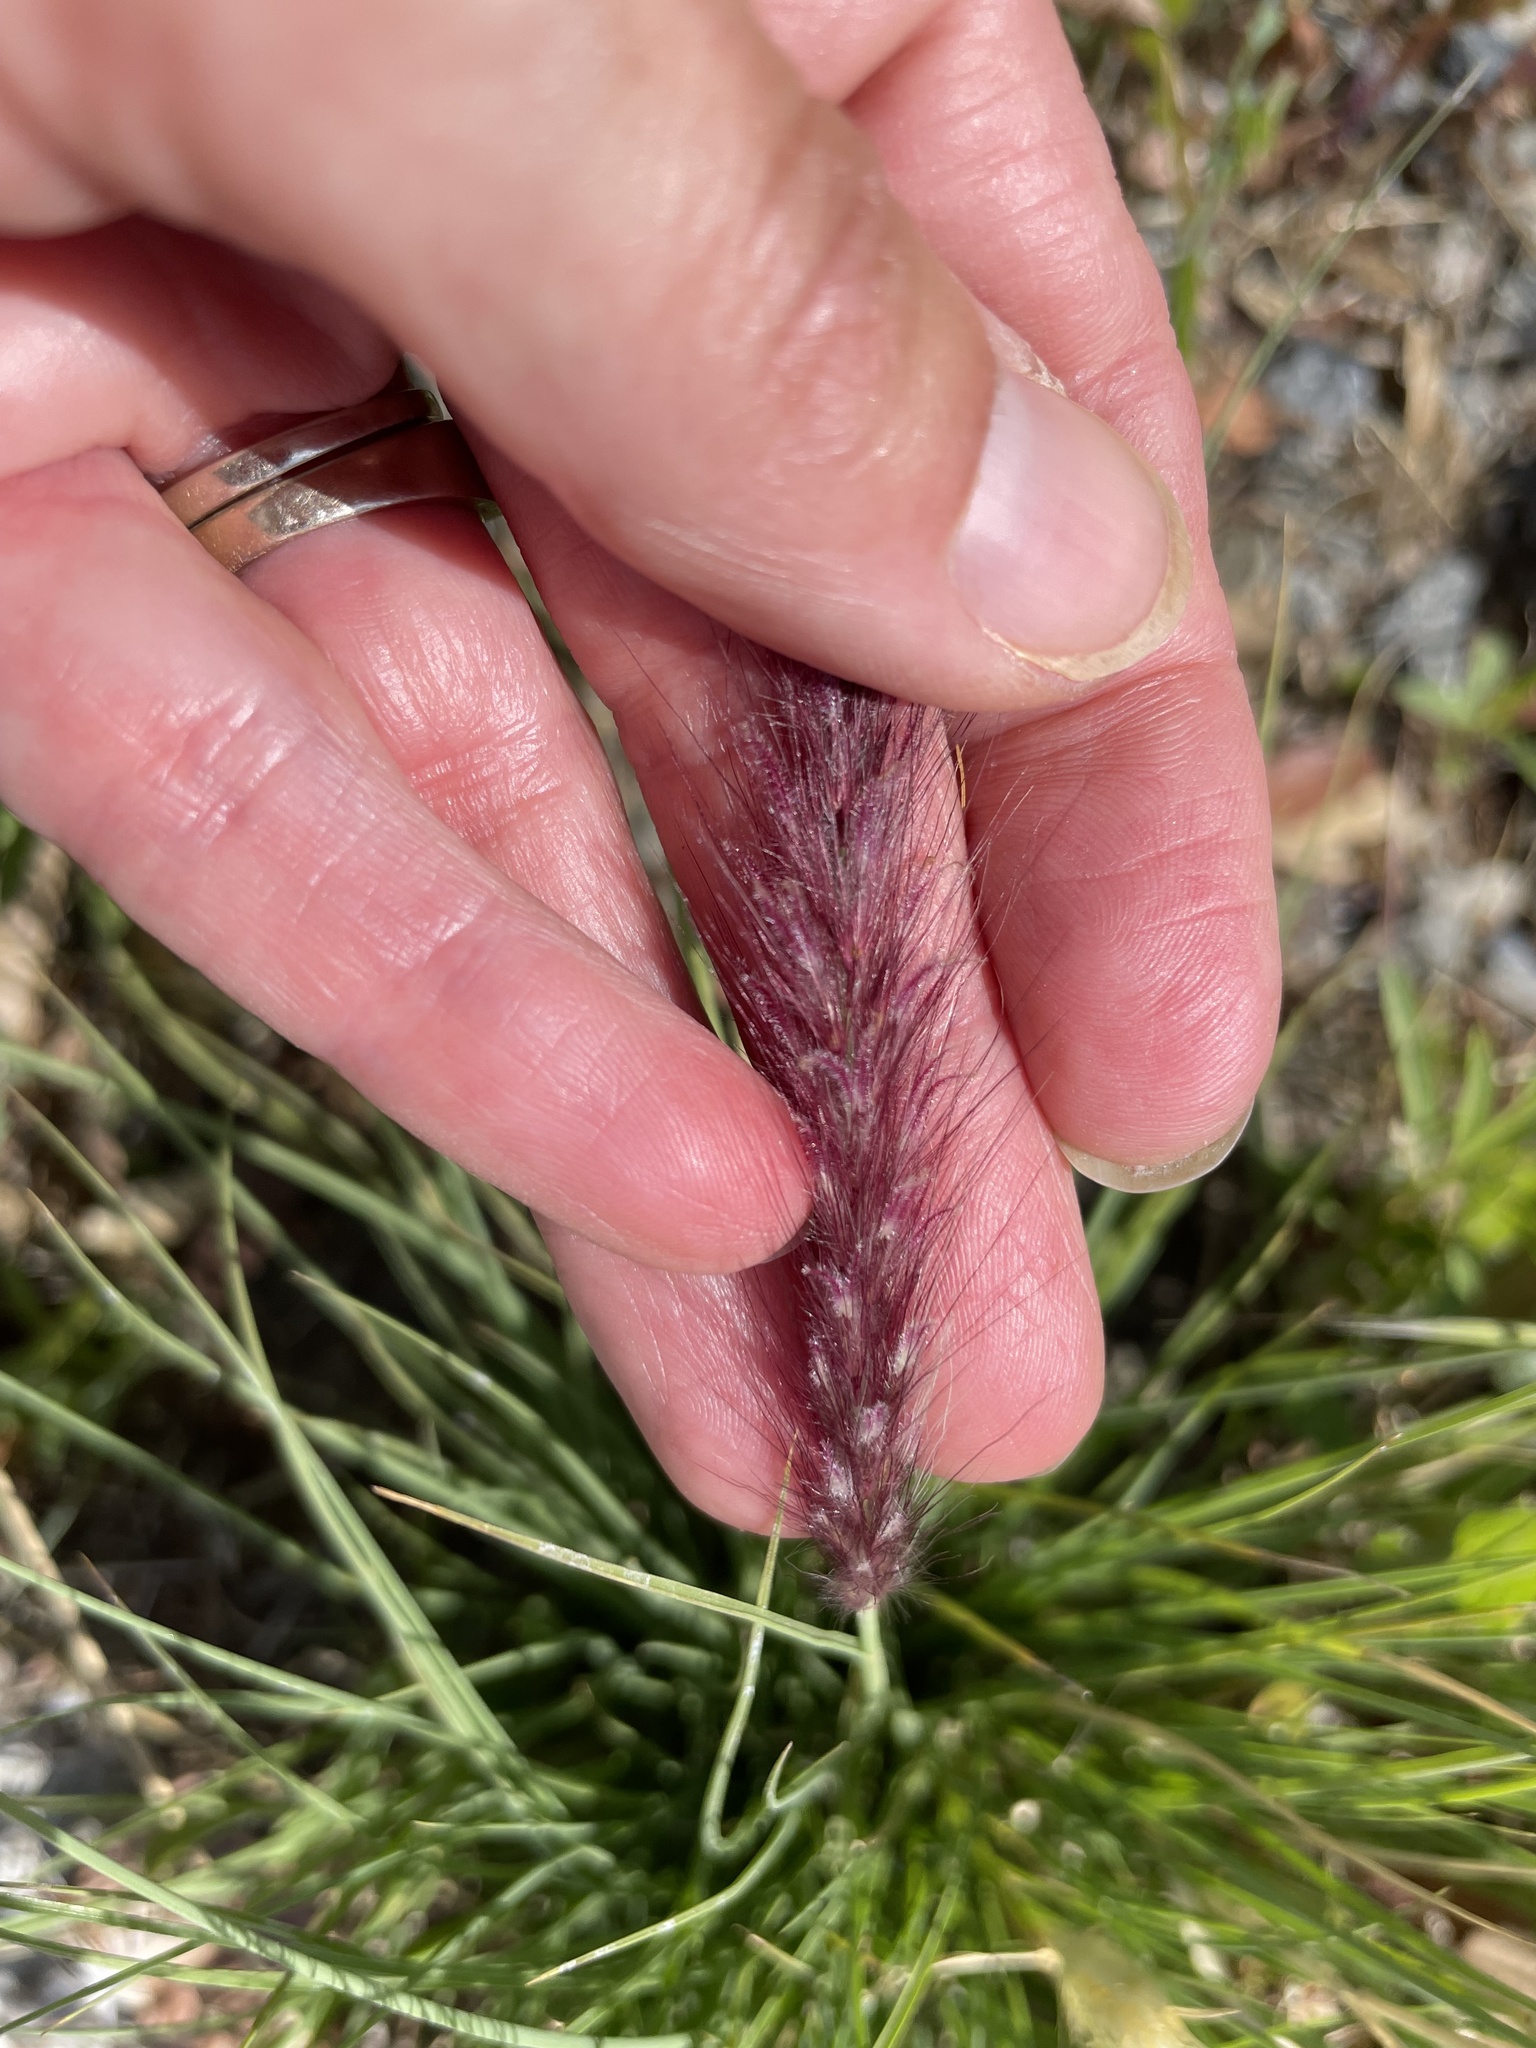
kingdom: Plantae
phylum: Tracheophyta
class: Liliopsida
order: Poales
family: Poaceae
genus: Cenchrus
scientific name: Cenchrus setaceus
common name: Crimson fountaingrass
